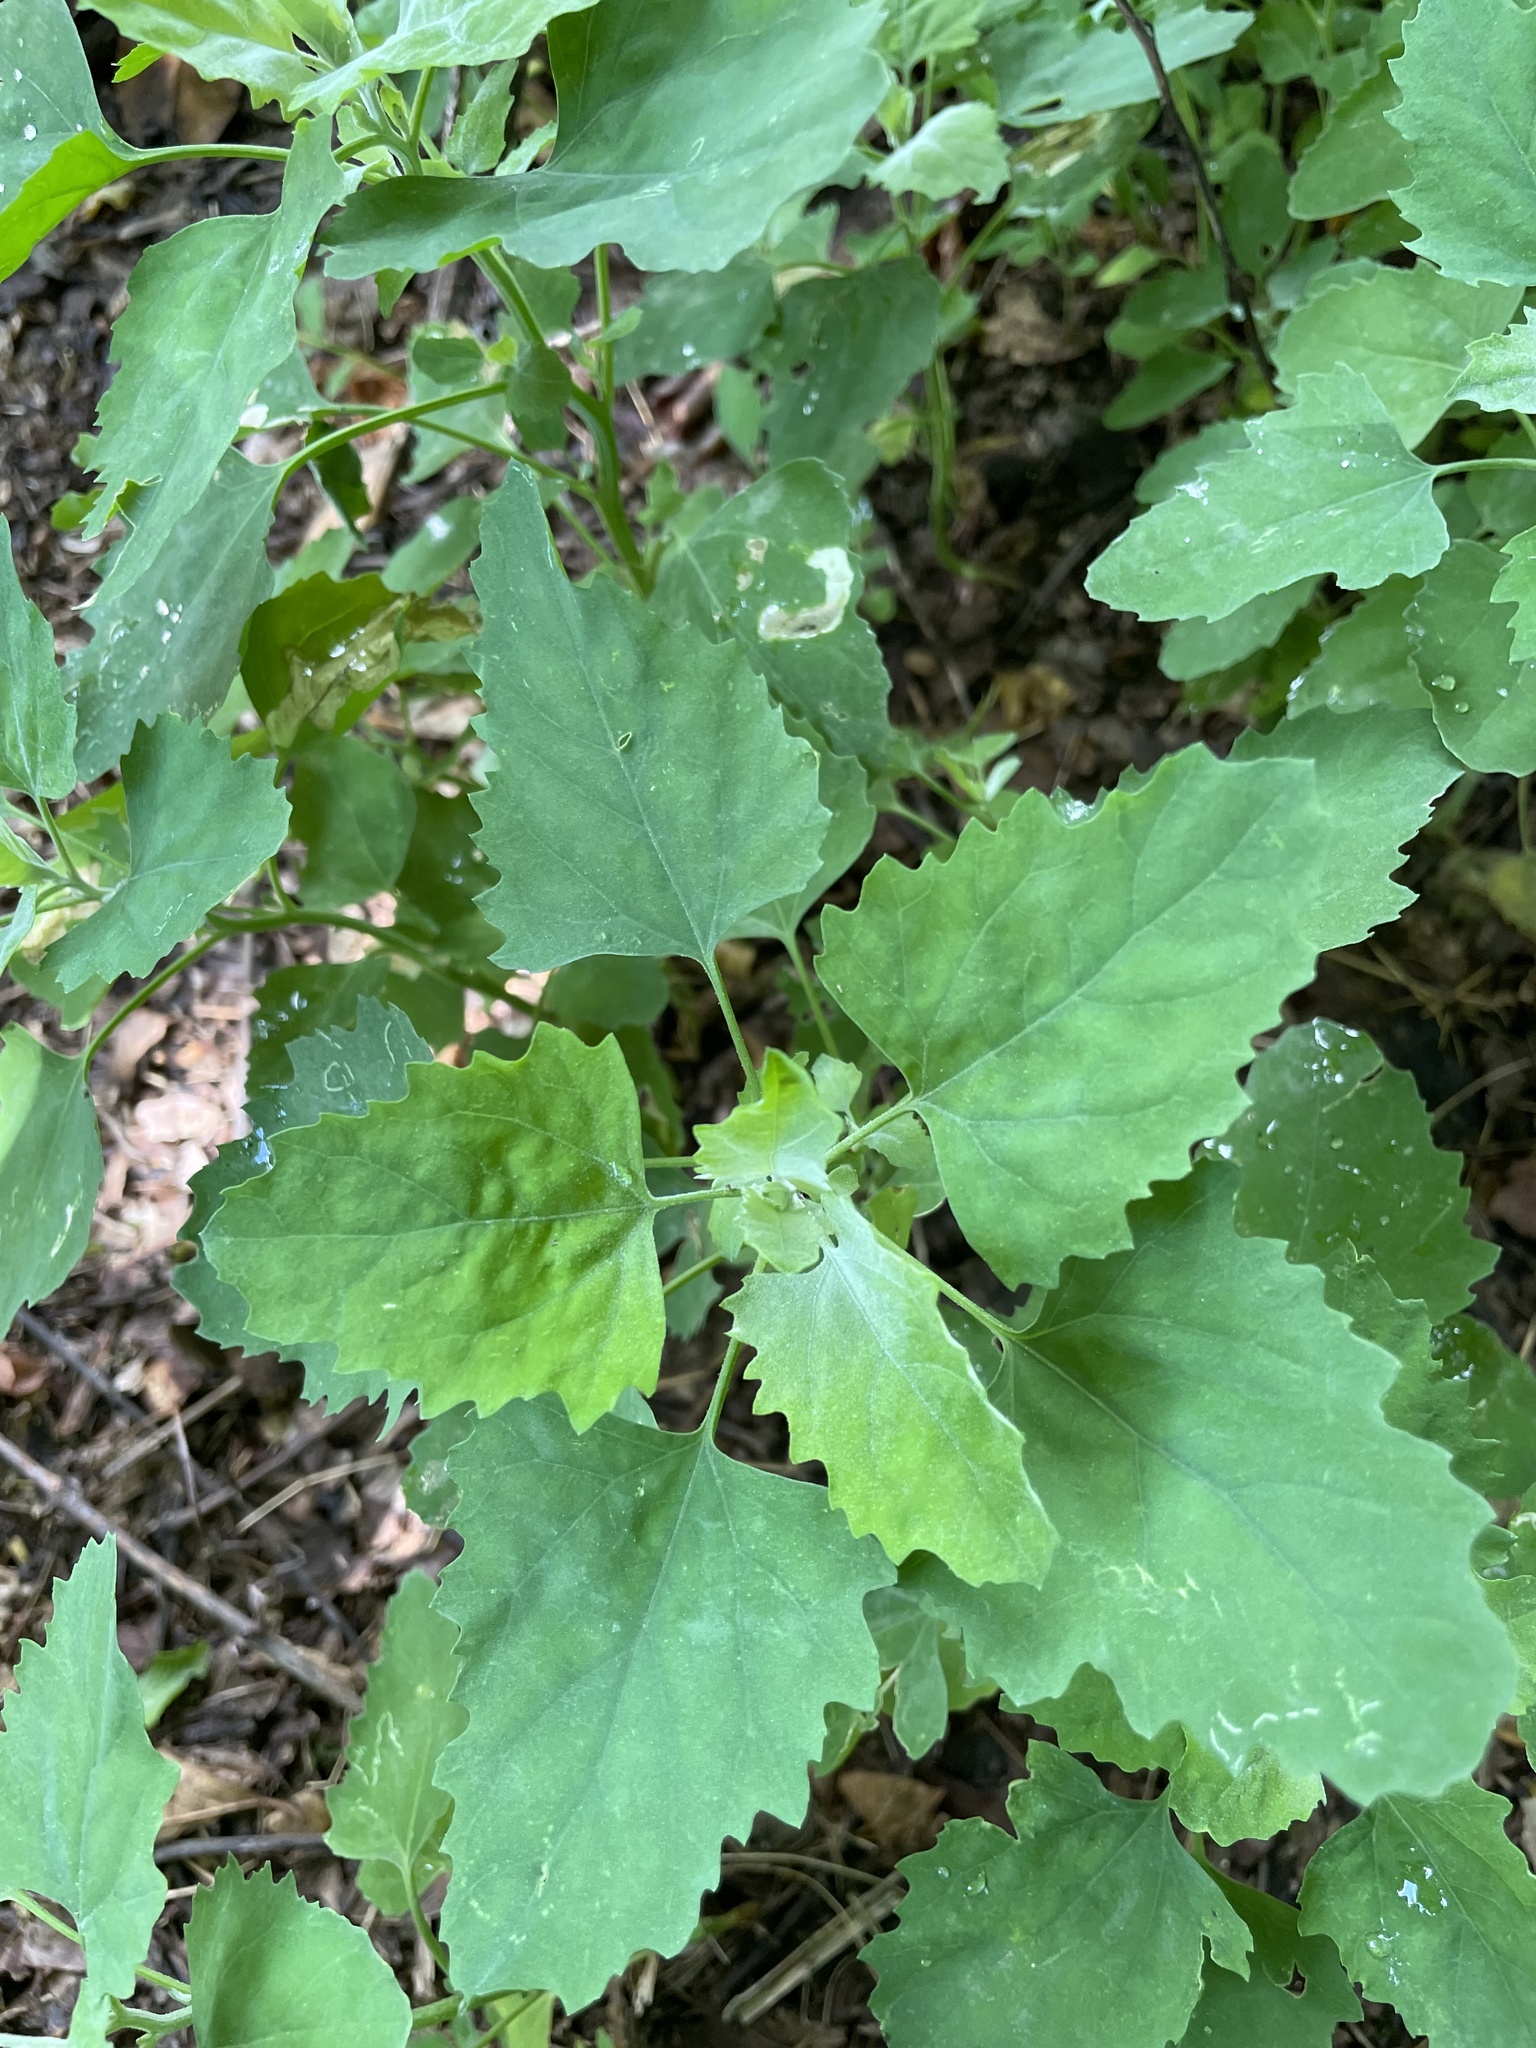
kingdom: Plantae
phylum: Tracheophyta
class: Magnoliopsida
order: Caryophyllales
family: Amaranthaceae
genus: Chenopodium
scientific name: Chenopodium album
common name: Fat-hen
